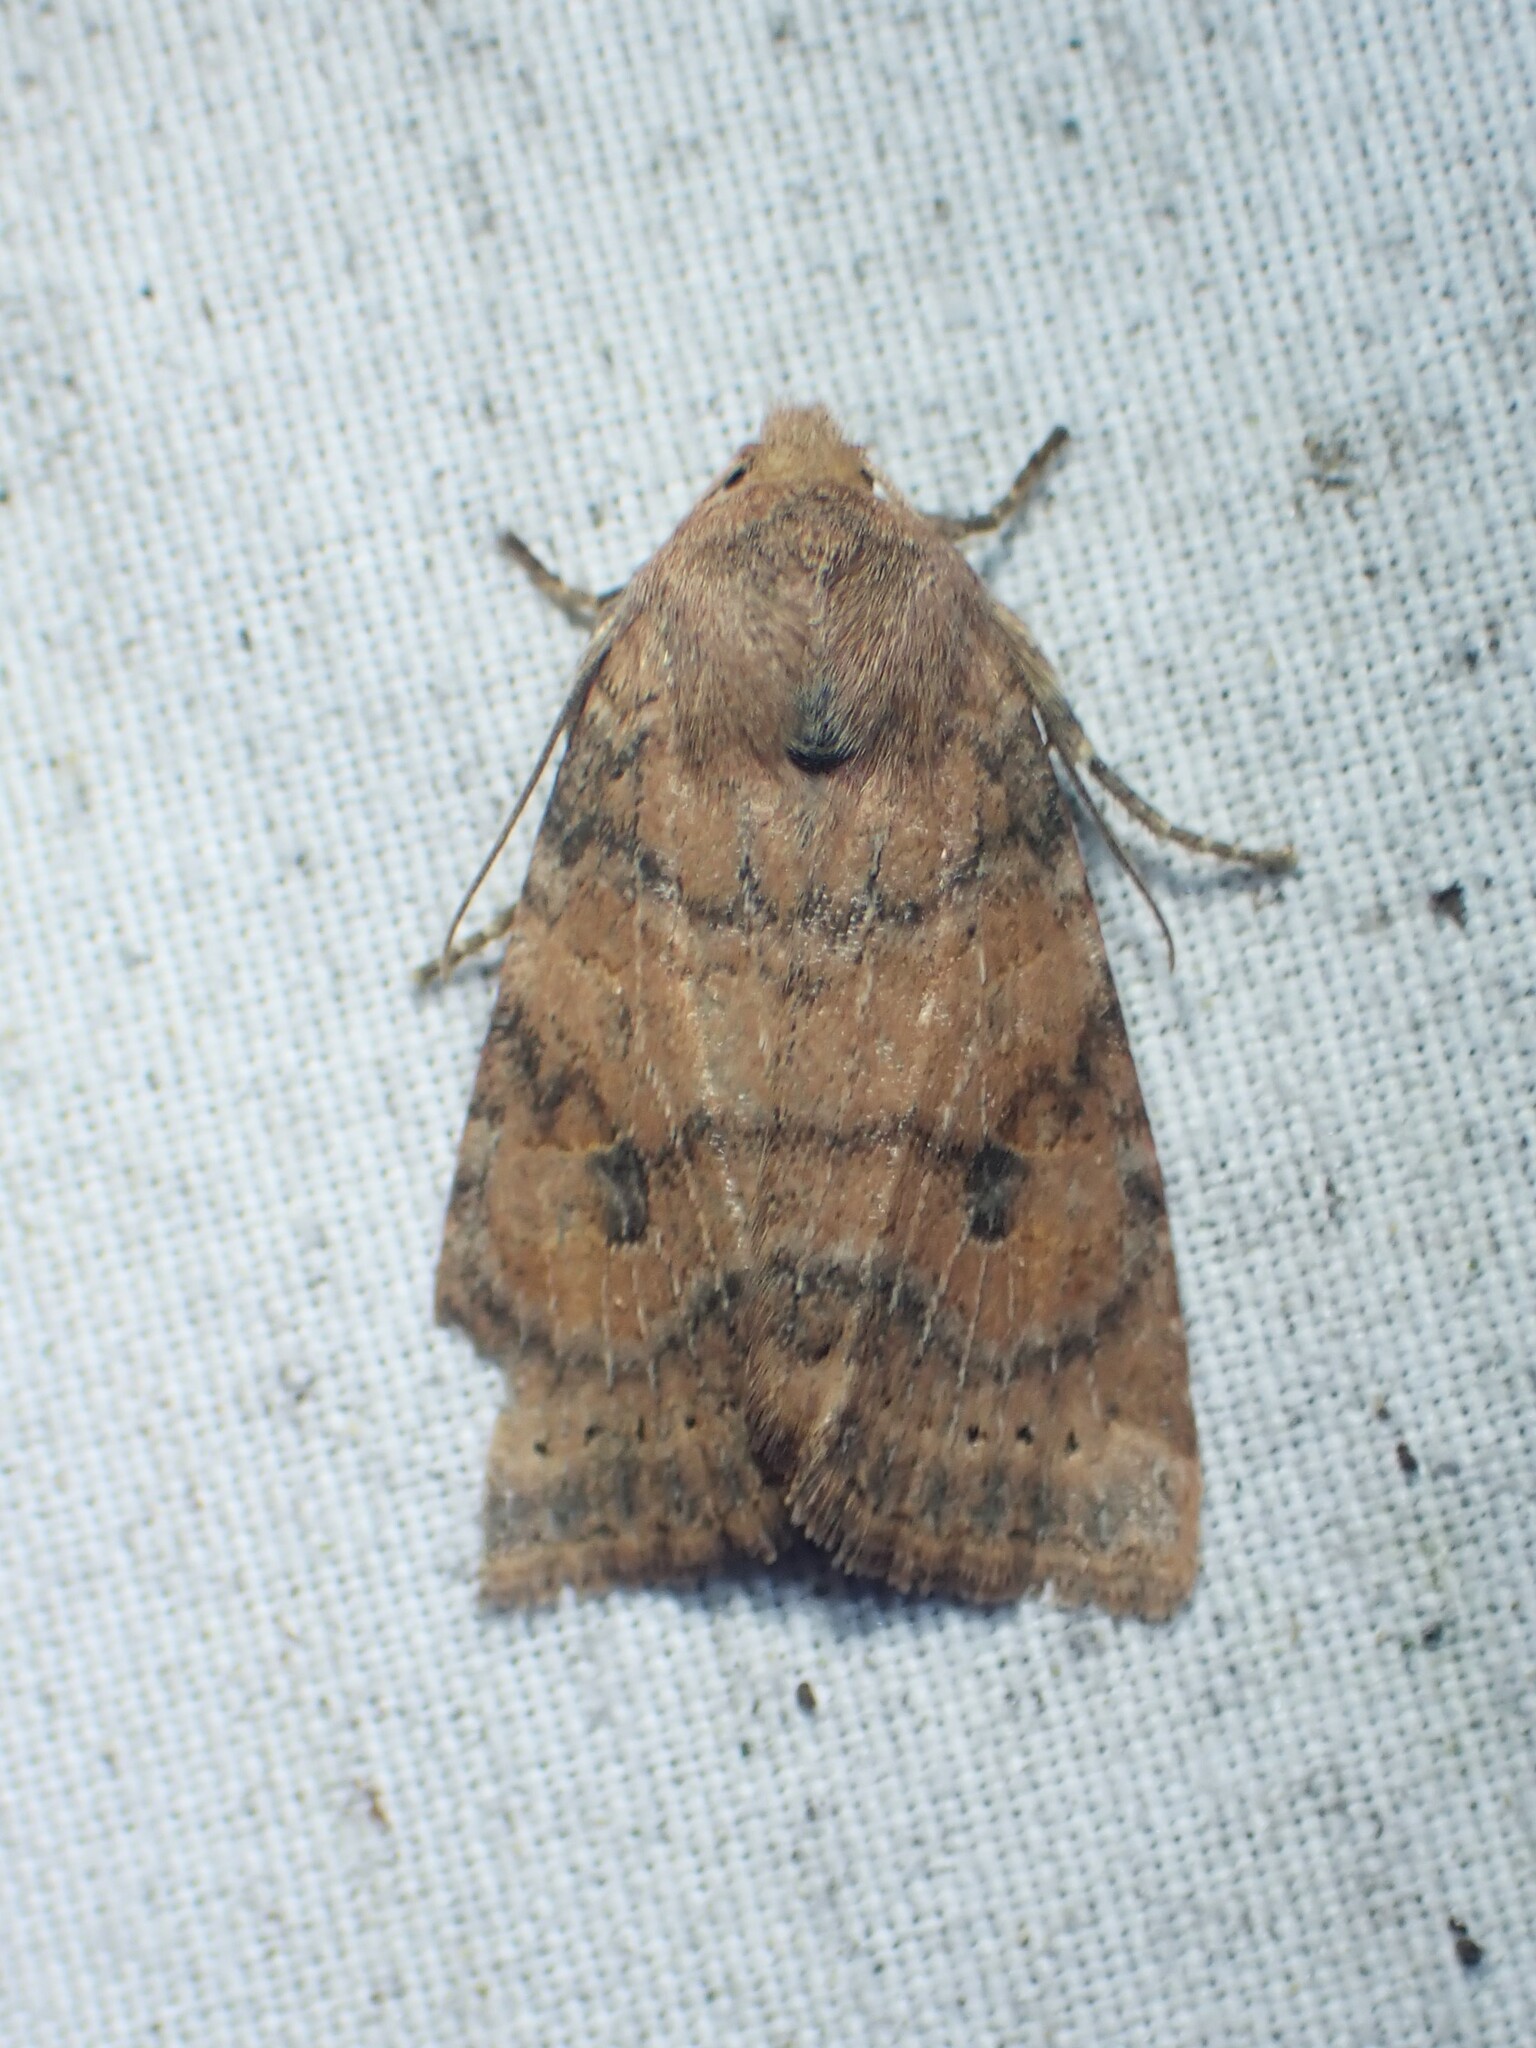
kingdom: Animalia
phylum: Arthropoda
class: Insecta
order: Lepidoptera
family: Noctuidae
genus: Anathix
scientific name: Anathix puta
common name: Puta sallow
